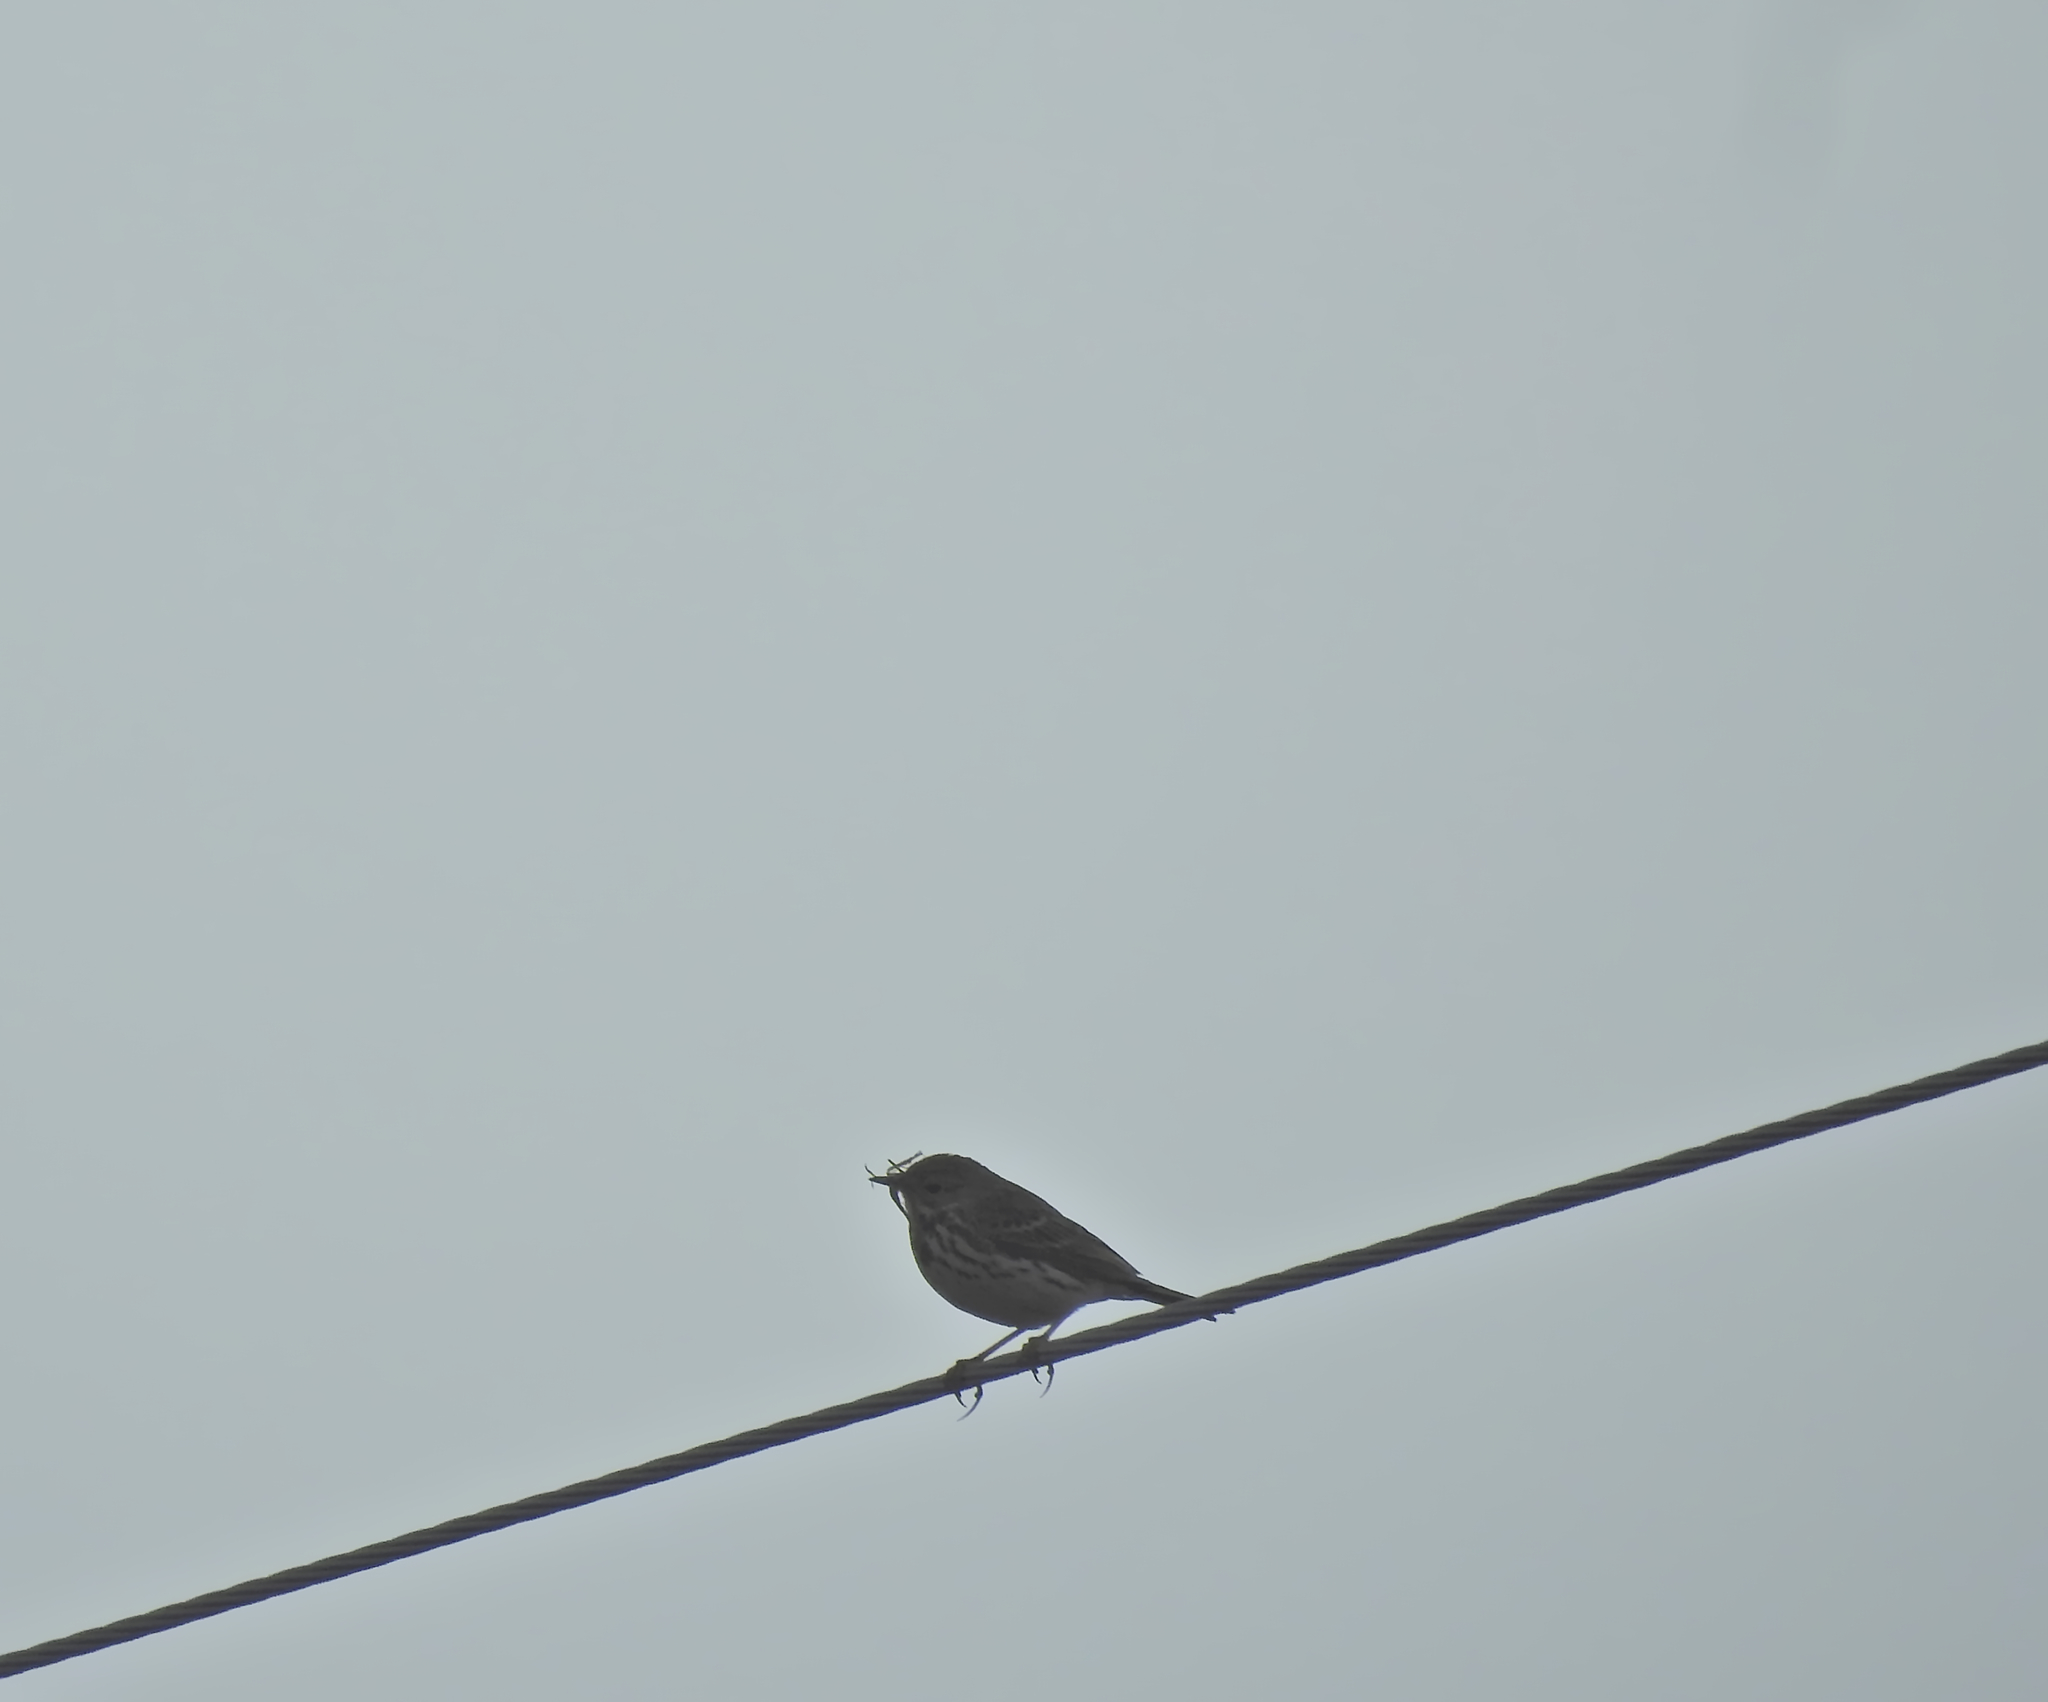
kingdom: Animalia
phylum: Chordata
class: Aves
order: Passeriformes
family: Motacillidae
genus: Anthus
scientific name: Anthus pratensis
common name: Meadow pipit
